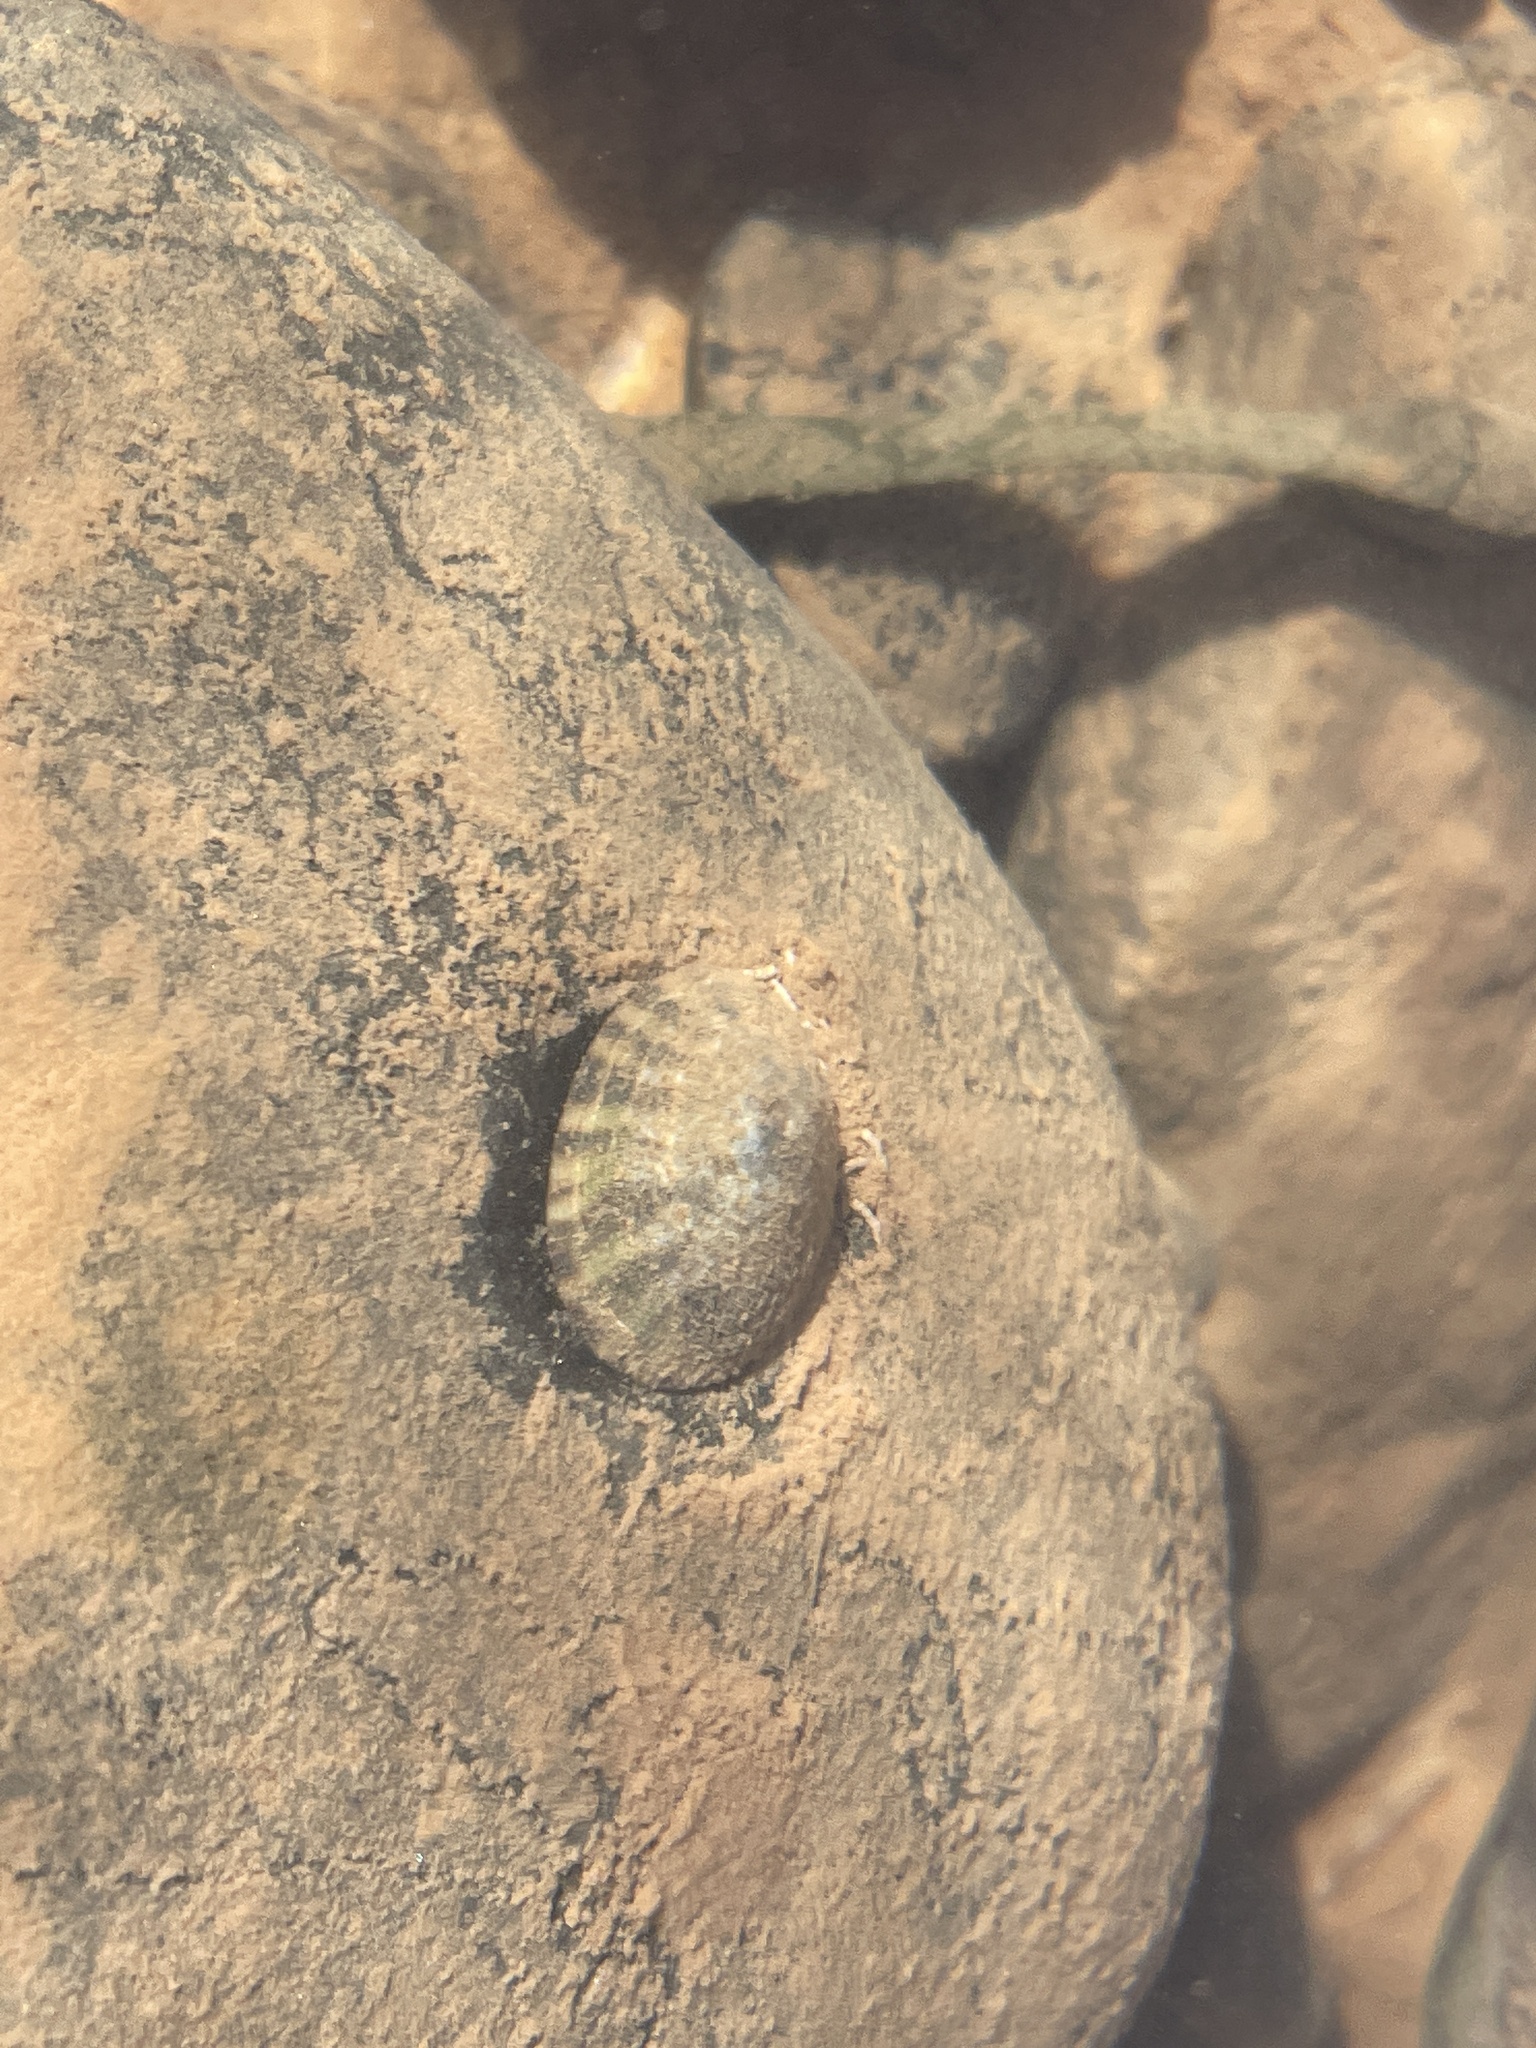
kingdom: Animalia
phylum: Mollusca
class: Gastropoda
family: Lottiidae
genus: Testudinalia
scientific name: Testudinalia testudinalis
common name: Common tortoiseshell limpet
